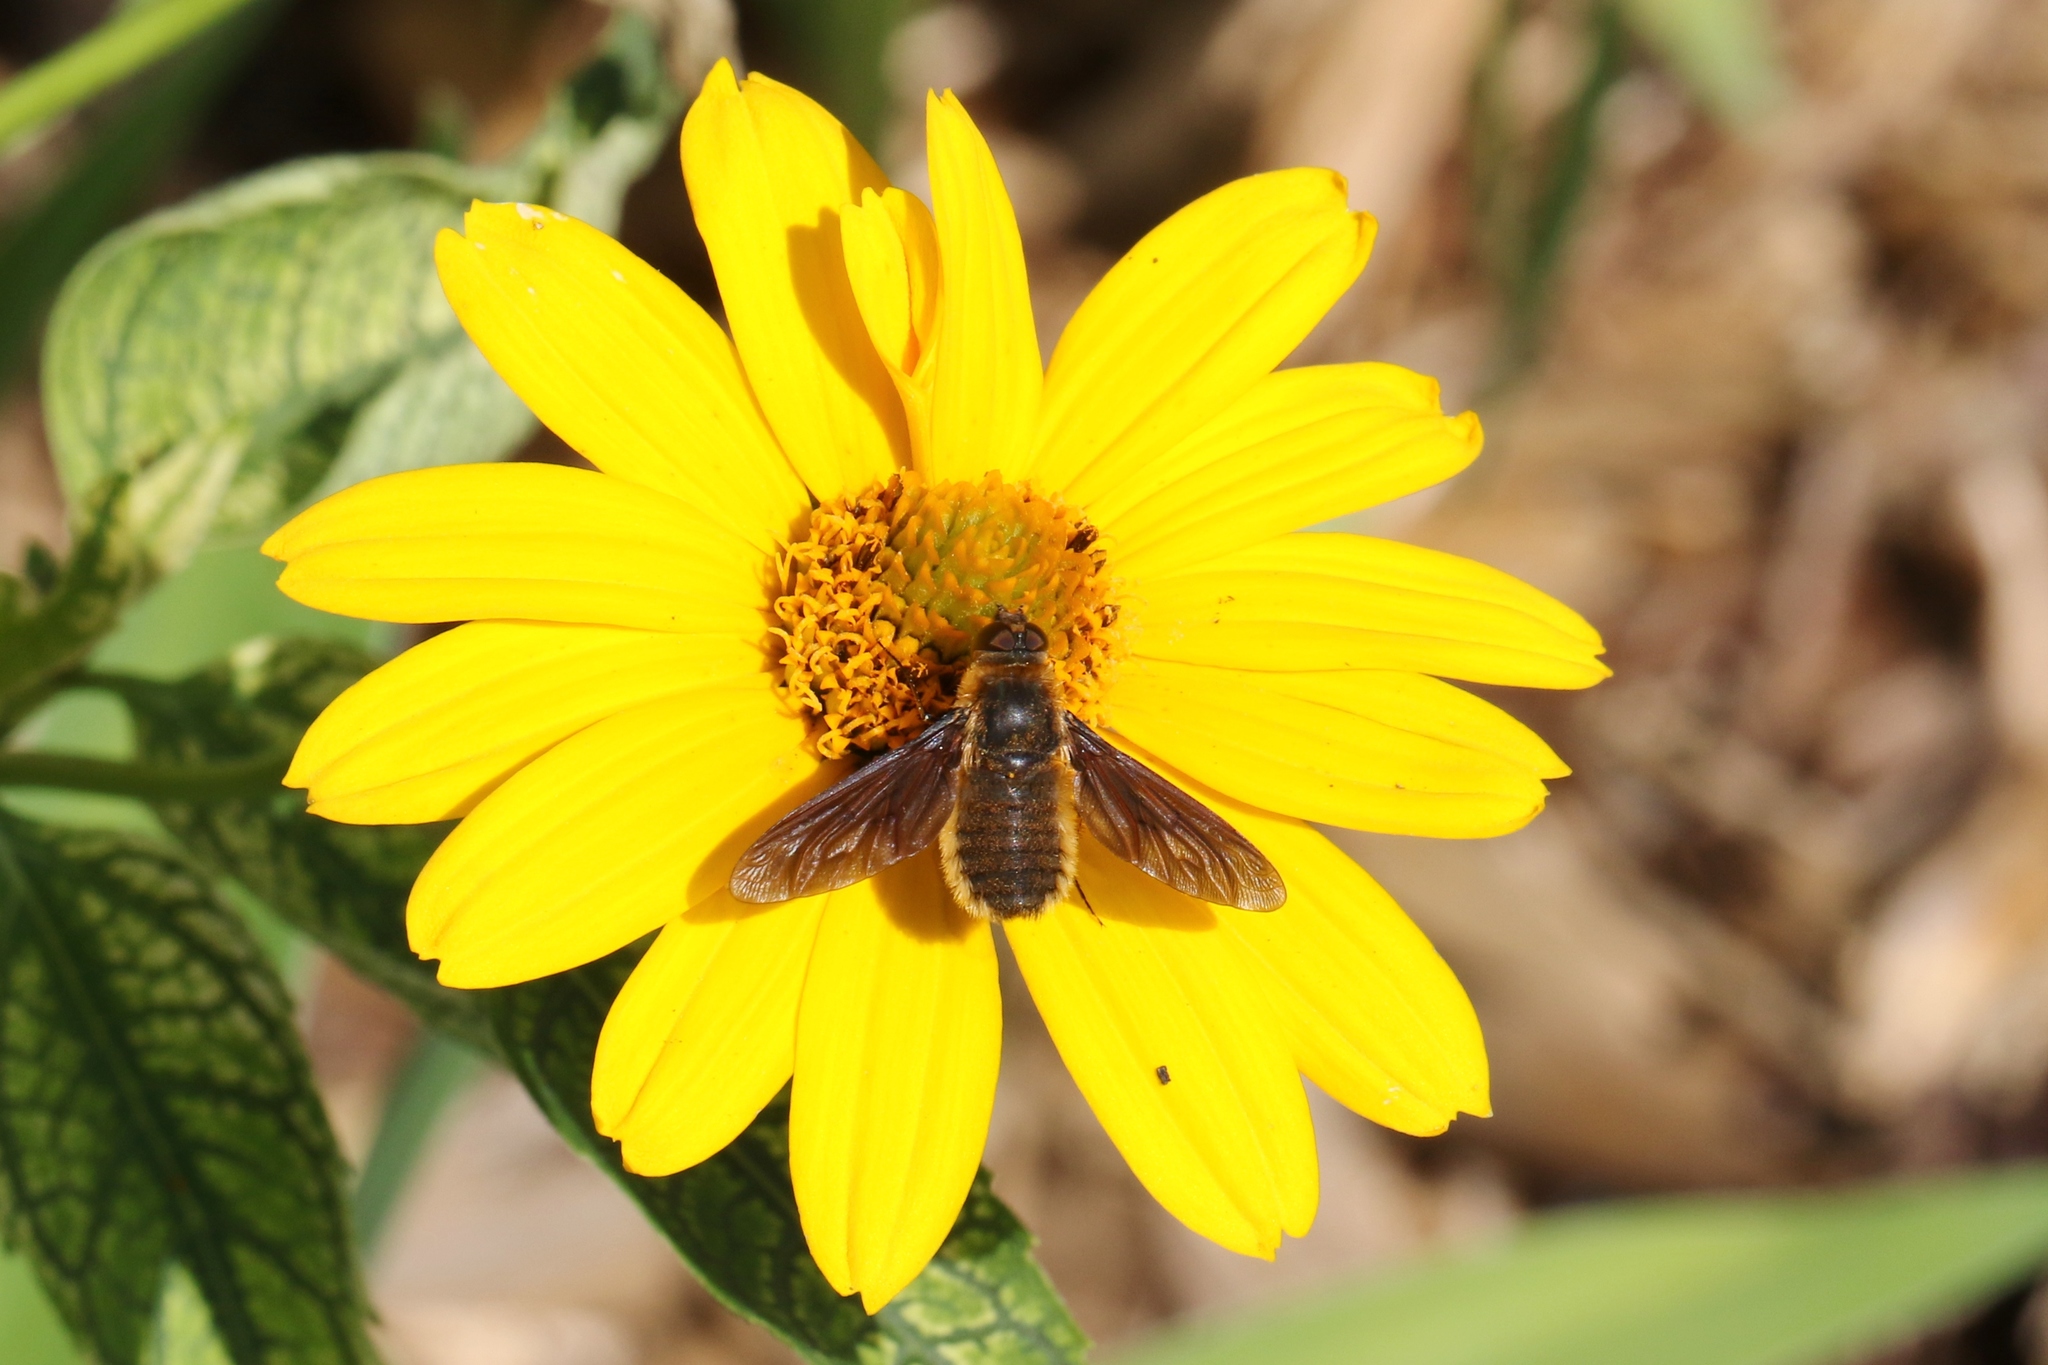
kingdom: Animalia
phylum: Arthropoda
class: Insecta
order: Diptera
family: Bombyliidae
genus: Poecilanthrax
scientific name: Poecilanthrax tegminipennis
